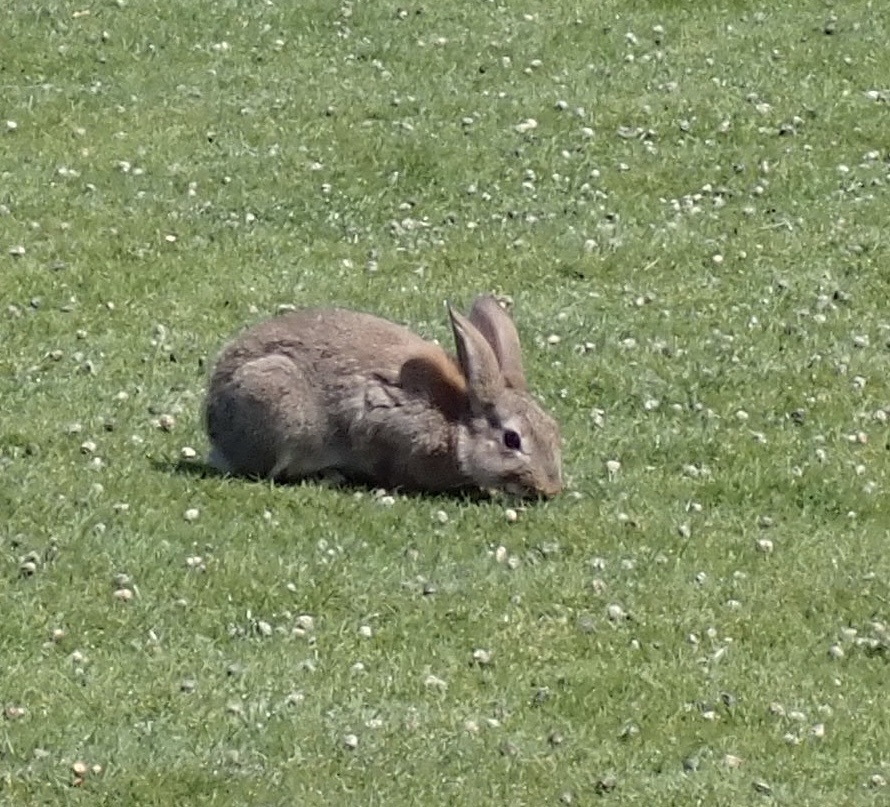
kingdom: Animalia
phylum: Chordata
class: Mammalia
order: Lagomorpha
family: Leporidae
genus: Oryctolagus
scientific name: Oryctolagus cuniculus
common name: European rabbit
